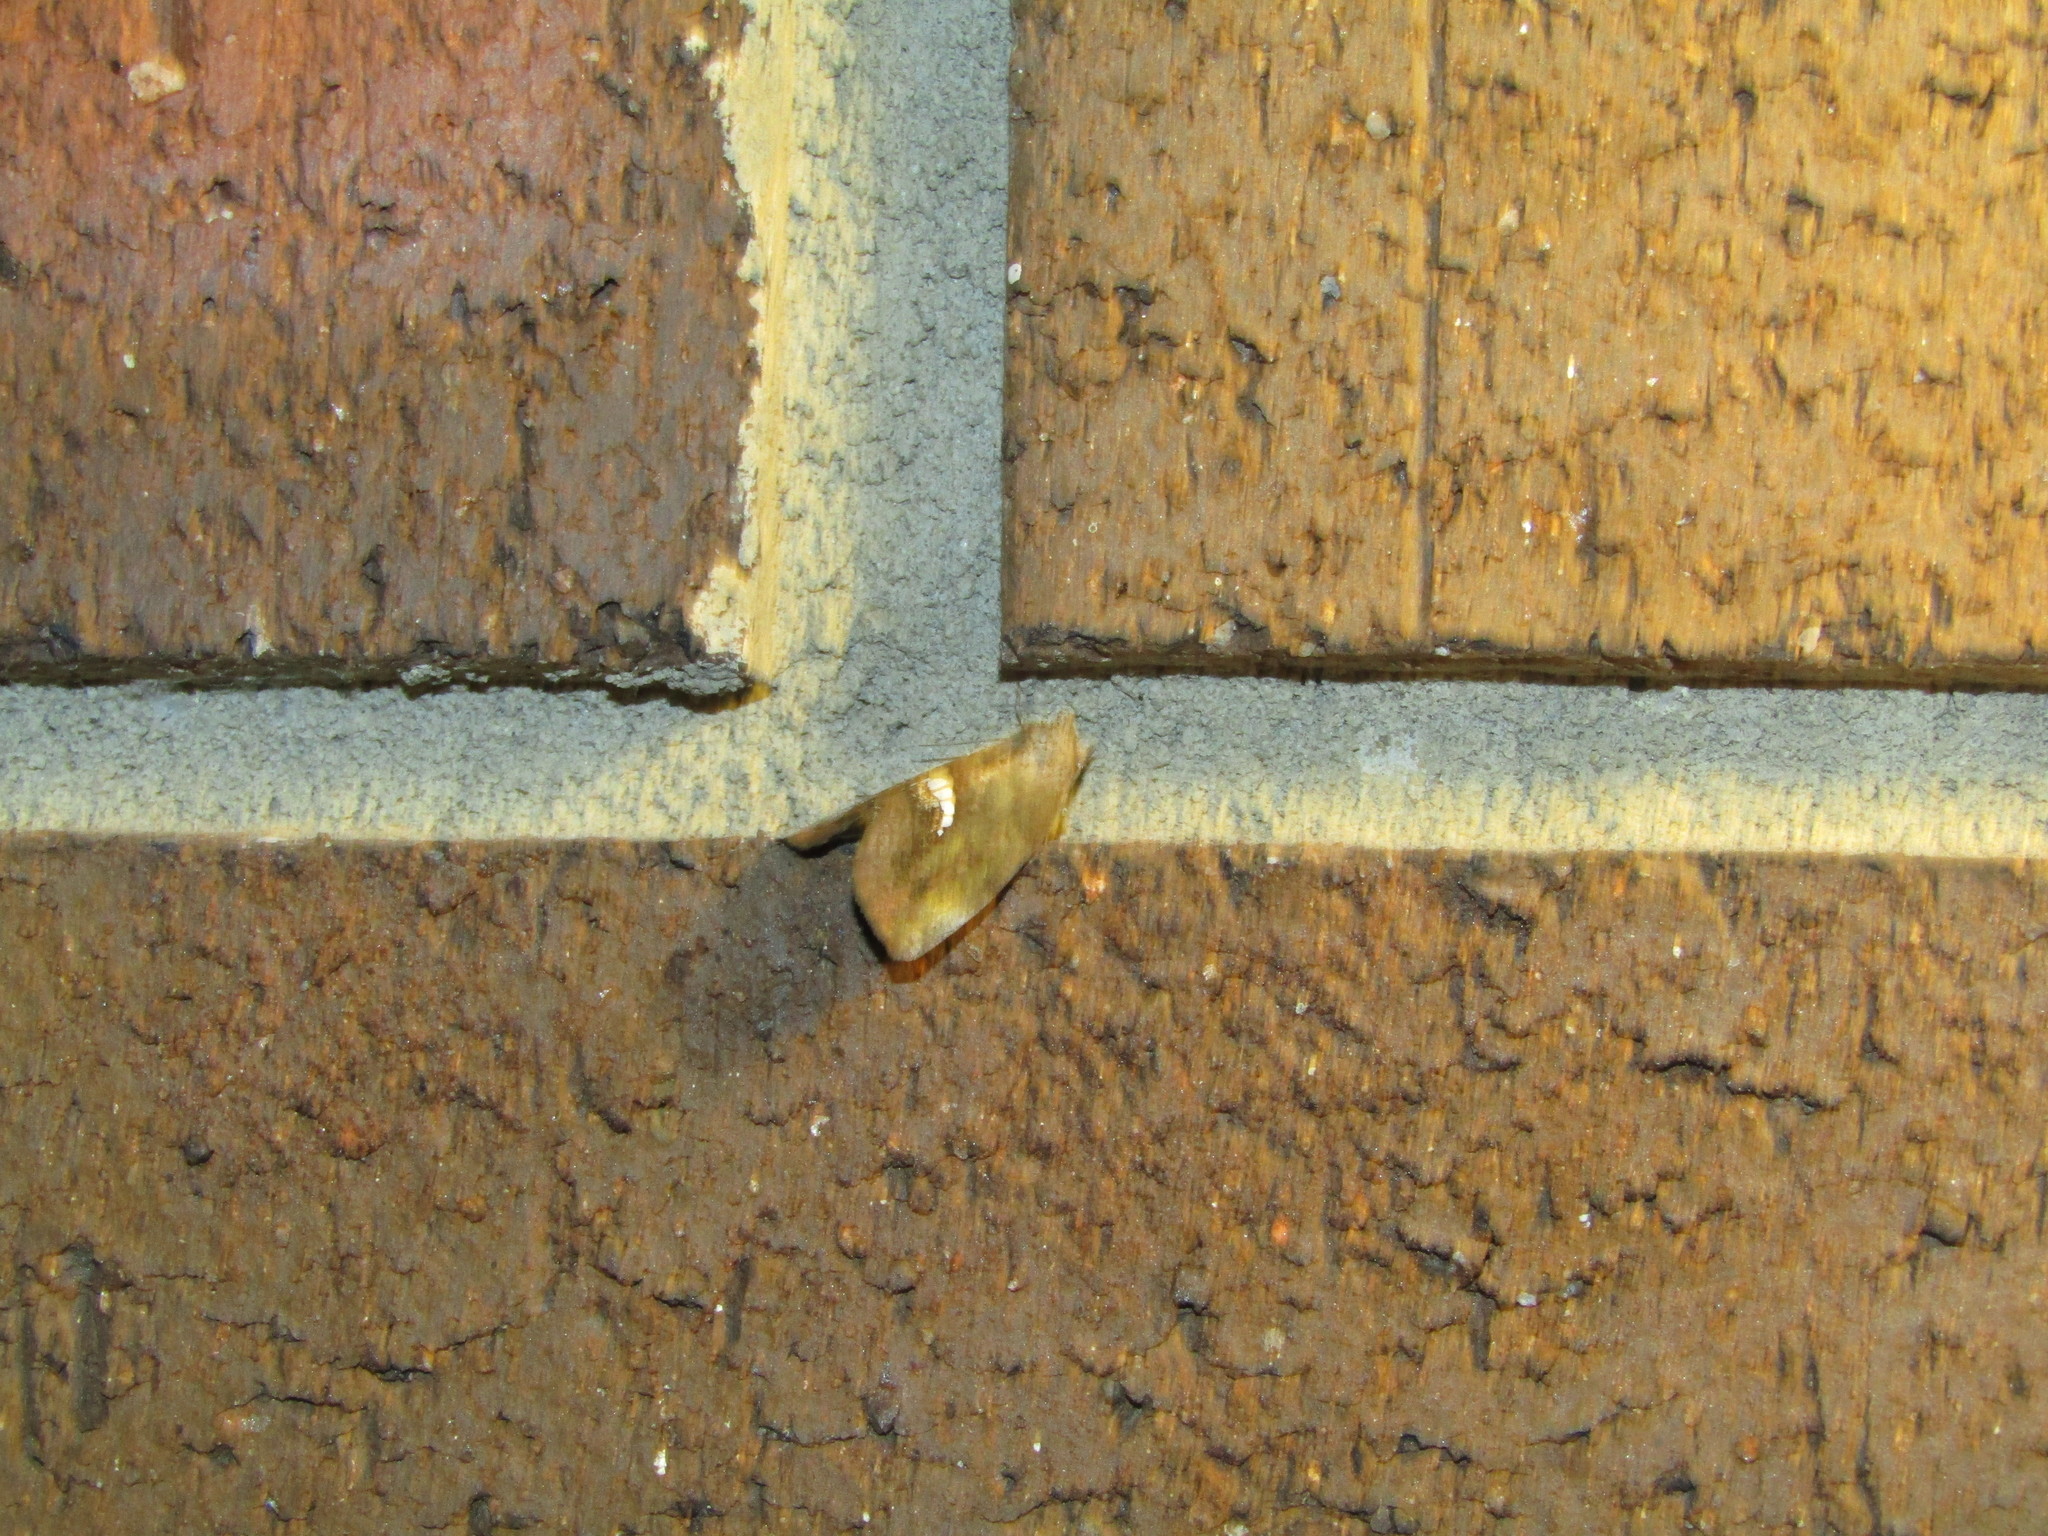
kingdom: Animalia
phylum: Arthropoda
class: Insecta
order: Lepidoptera
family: Erebidae
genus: Hypsoropha
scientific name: Hypsoropha hormos
